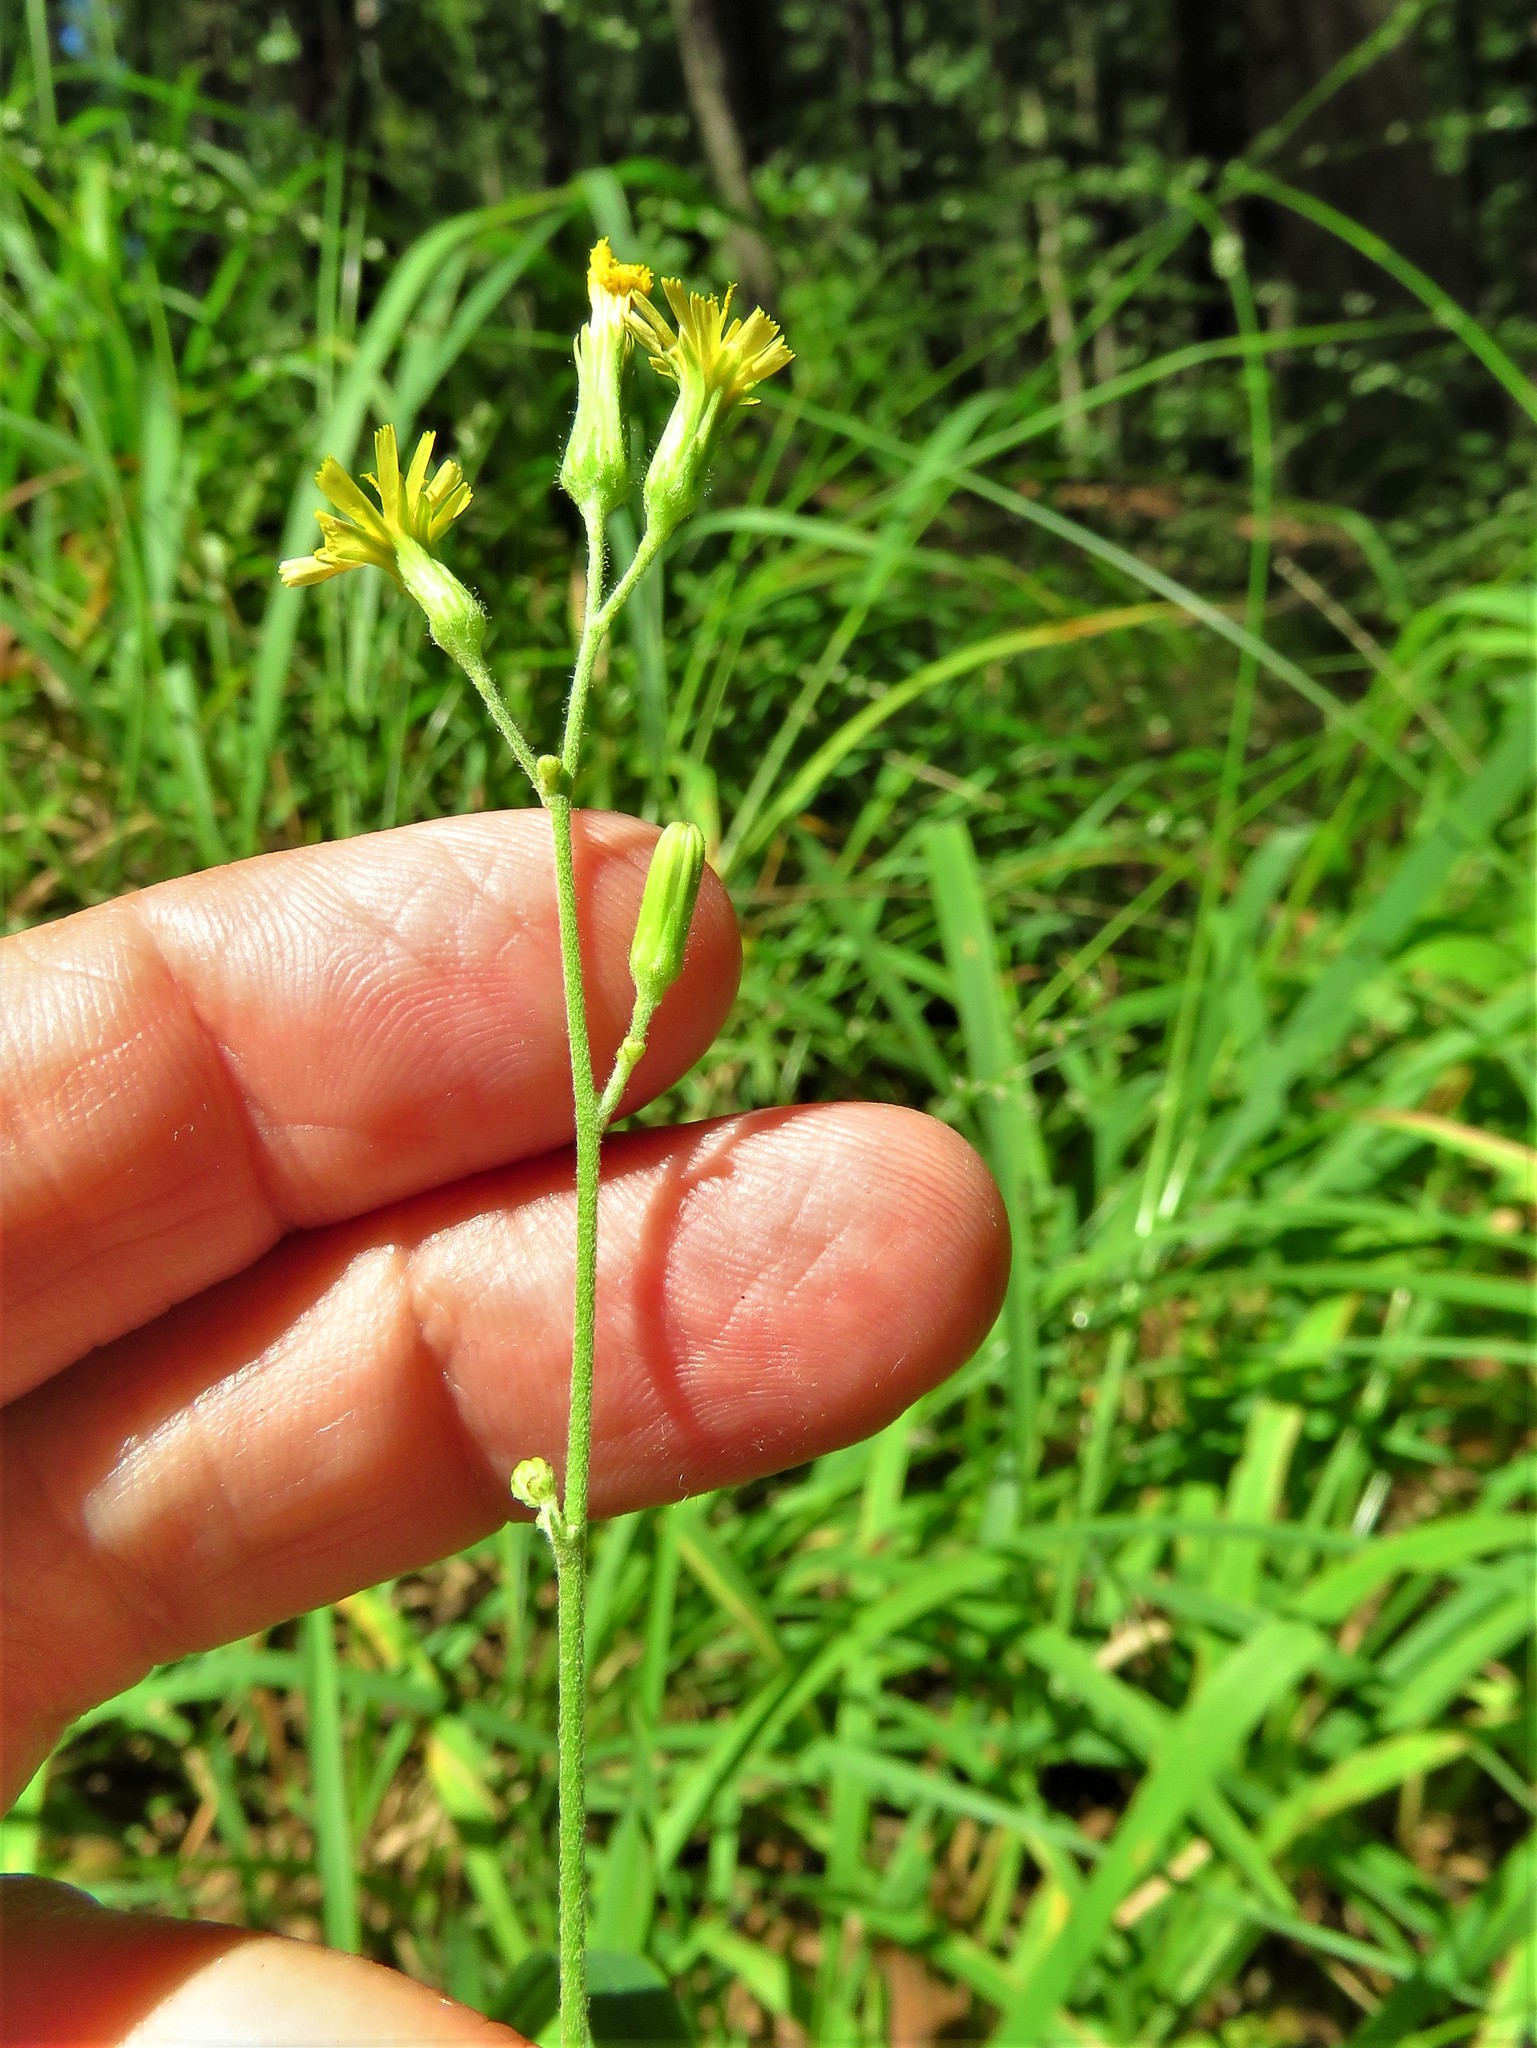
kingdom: Plantae
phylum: Tracheophyta
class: Magnoliopsida
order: Asterales
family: Asteraceae
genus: Hieracium
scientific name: Hieracium gronovii
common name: Beaked hawkweed
